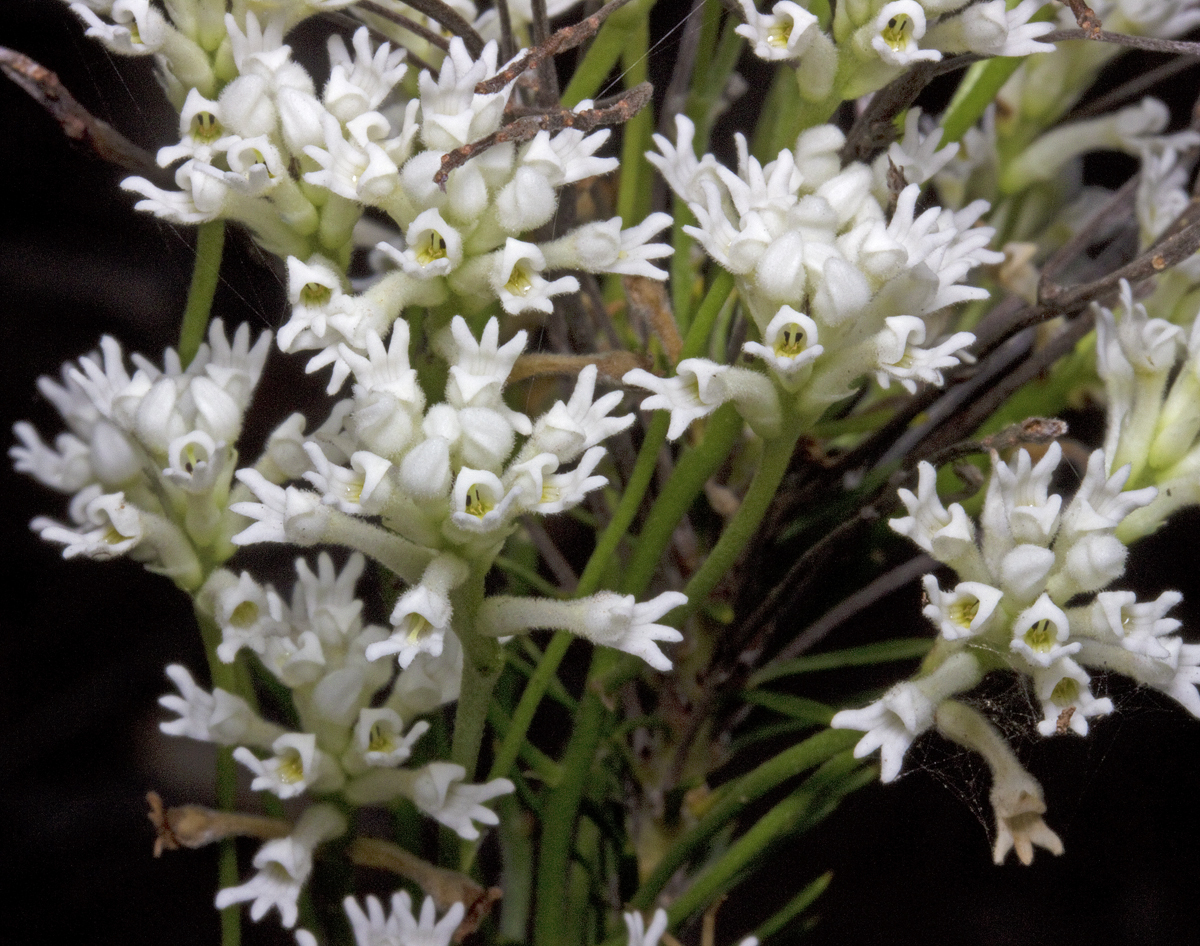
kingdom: Plantae
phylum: Tracheophyta
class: Magnoliopsida
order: Proteales
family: Proteaceae
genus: Conospermum
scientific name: Conospermum taxifolium
